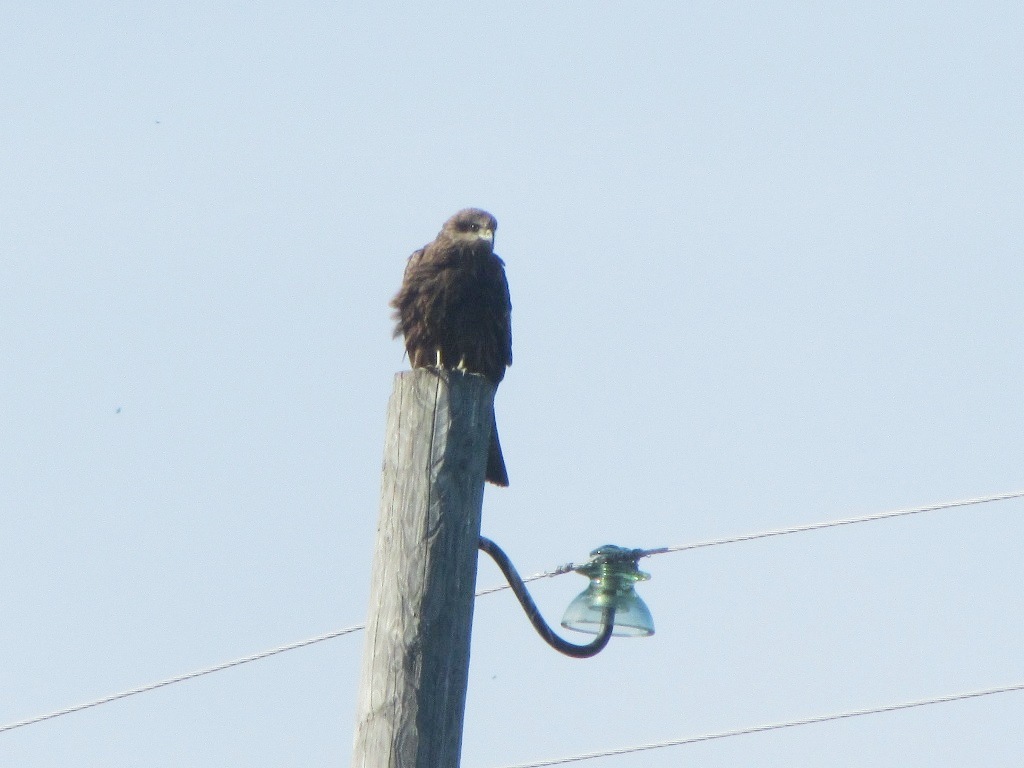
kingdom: Animalia
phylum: Chordata
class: Aves
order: Accipitriformes
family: Accipitridae
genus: Milvus
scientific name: Milvus migrans
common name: Black kite
